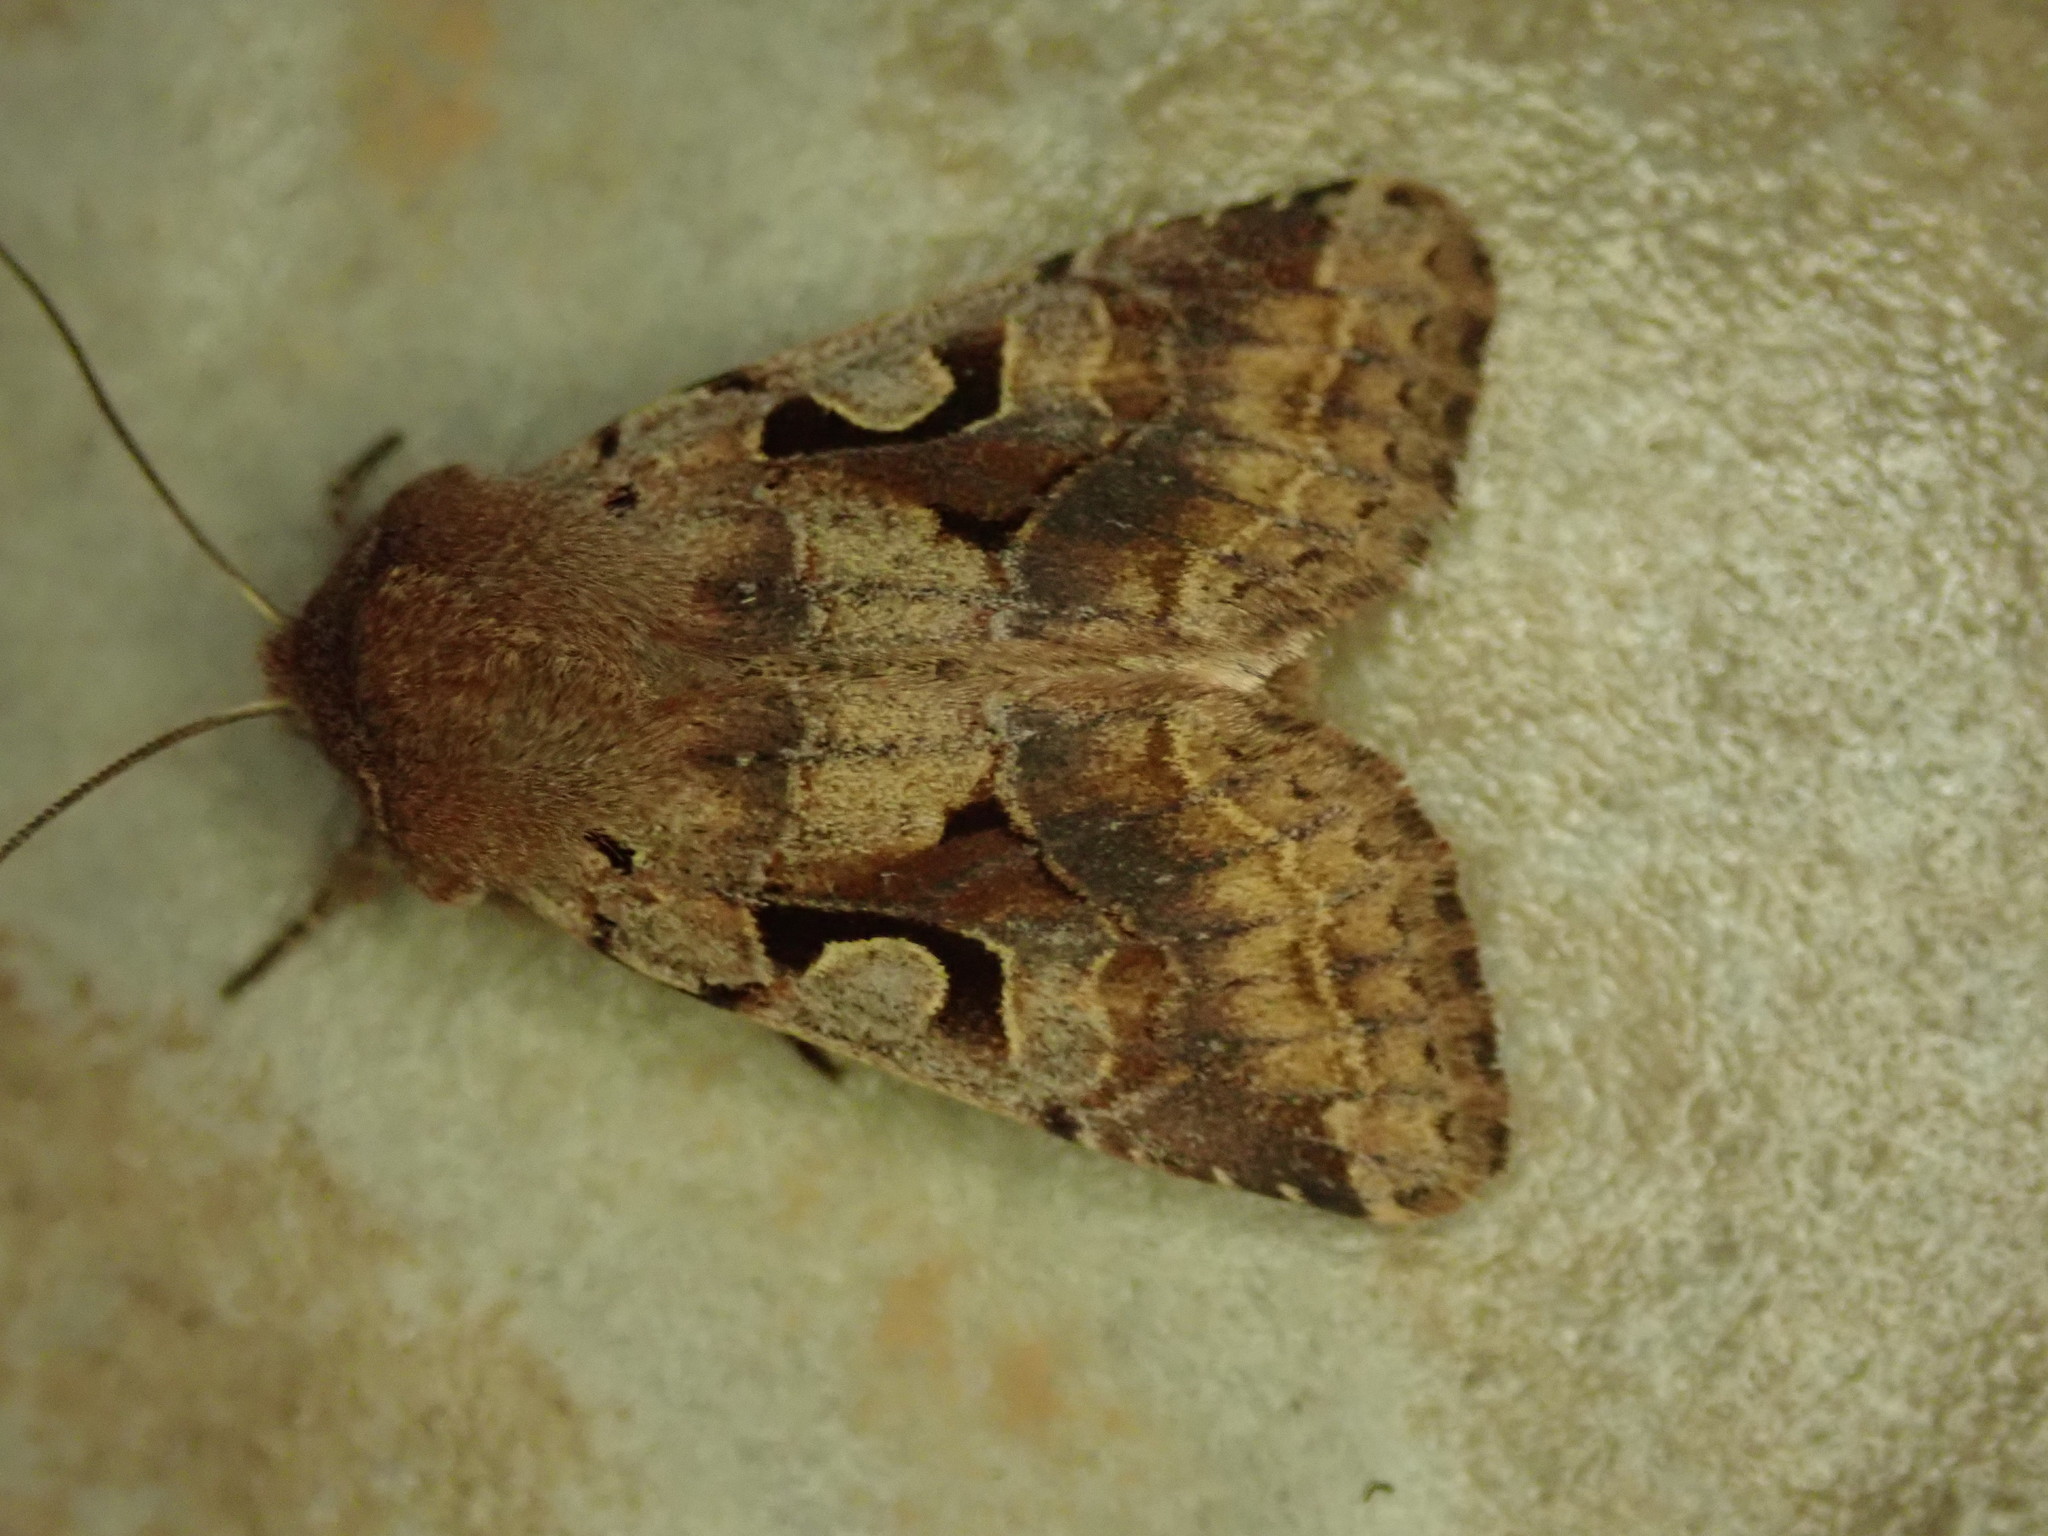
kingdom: Animalia
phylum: Arthropoda
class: Insecta
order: Lepidoptera
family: Noctuidae
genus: Orthosia
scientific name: Orthosia gothica
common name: Hebrew character
